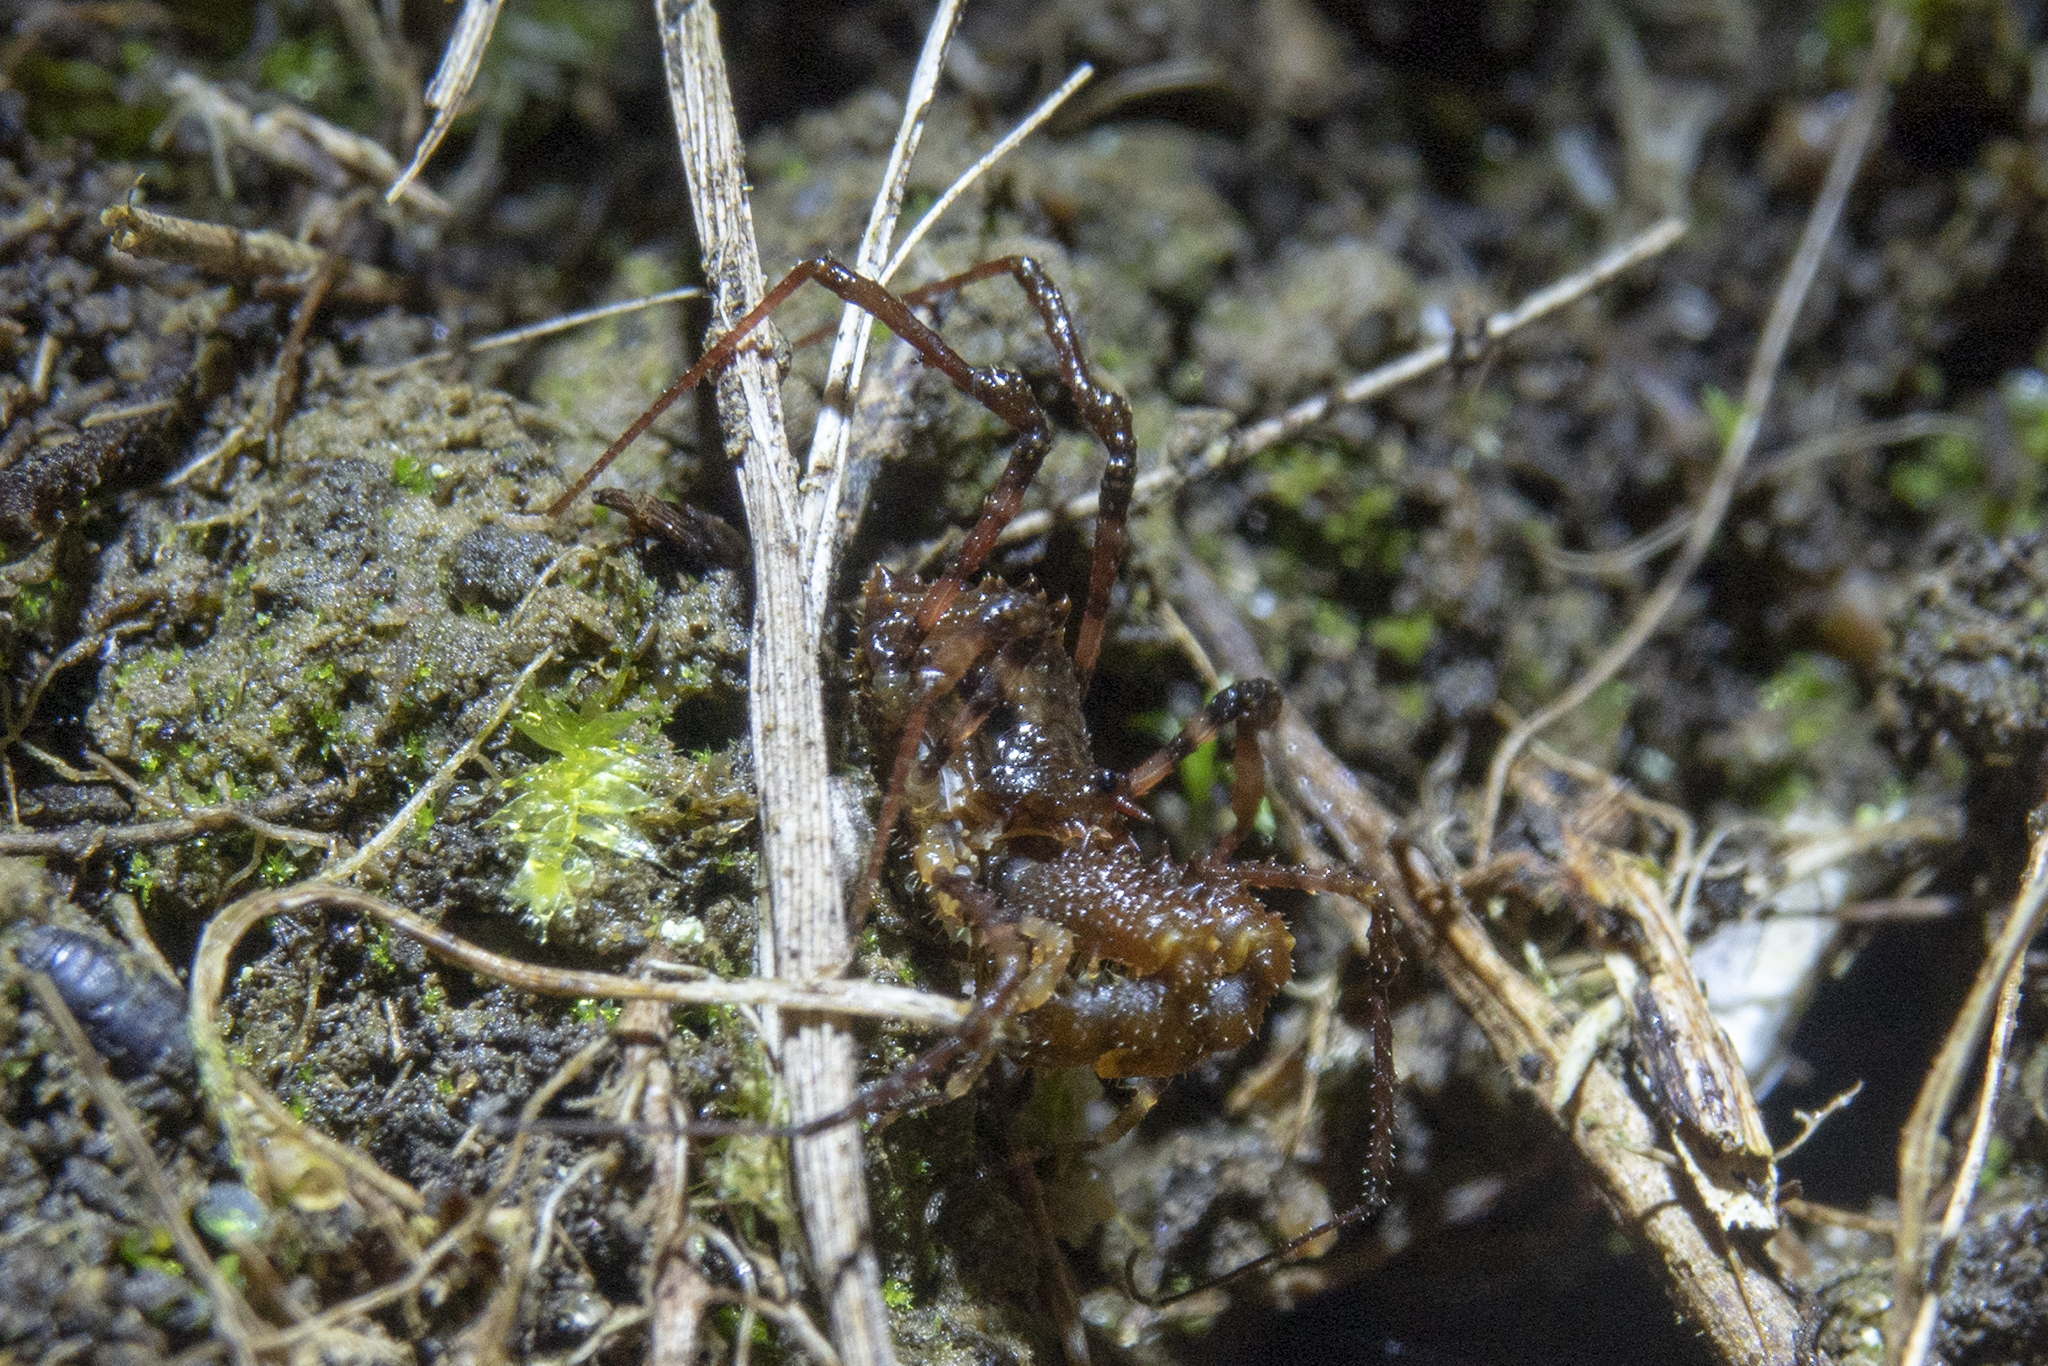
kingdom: Animalia
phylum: Arthropoda
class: Arachnida
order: Opiliones
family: Triaenonychidae
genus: Karamea
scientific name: Karamea lobata
